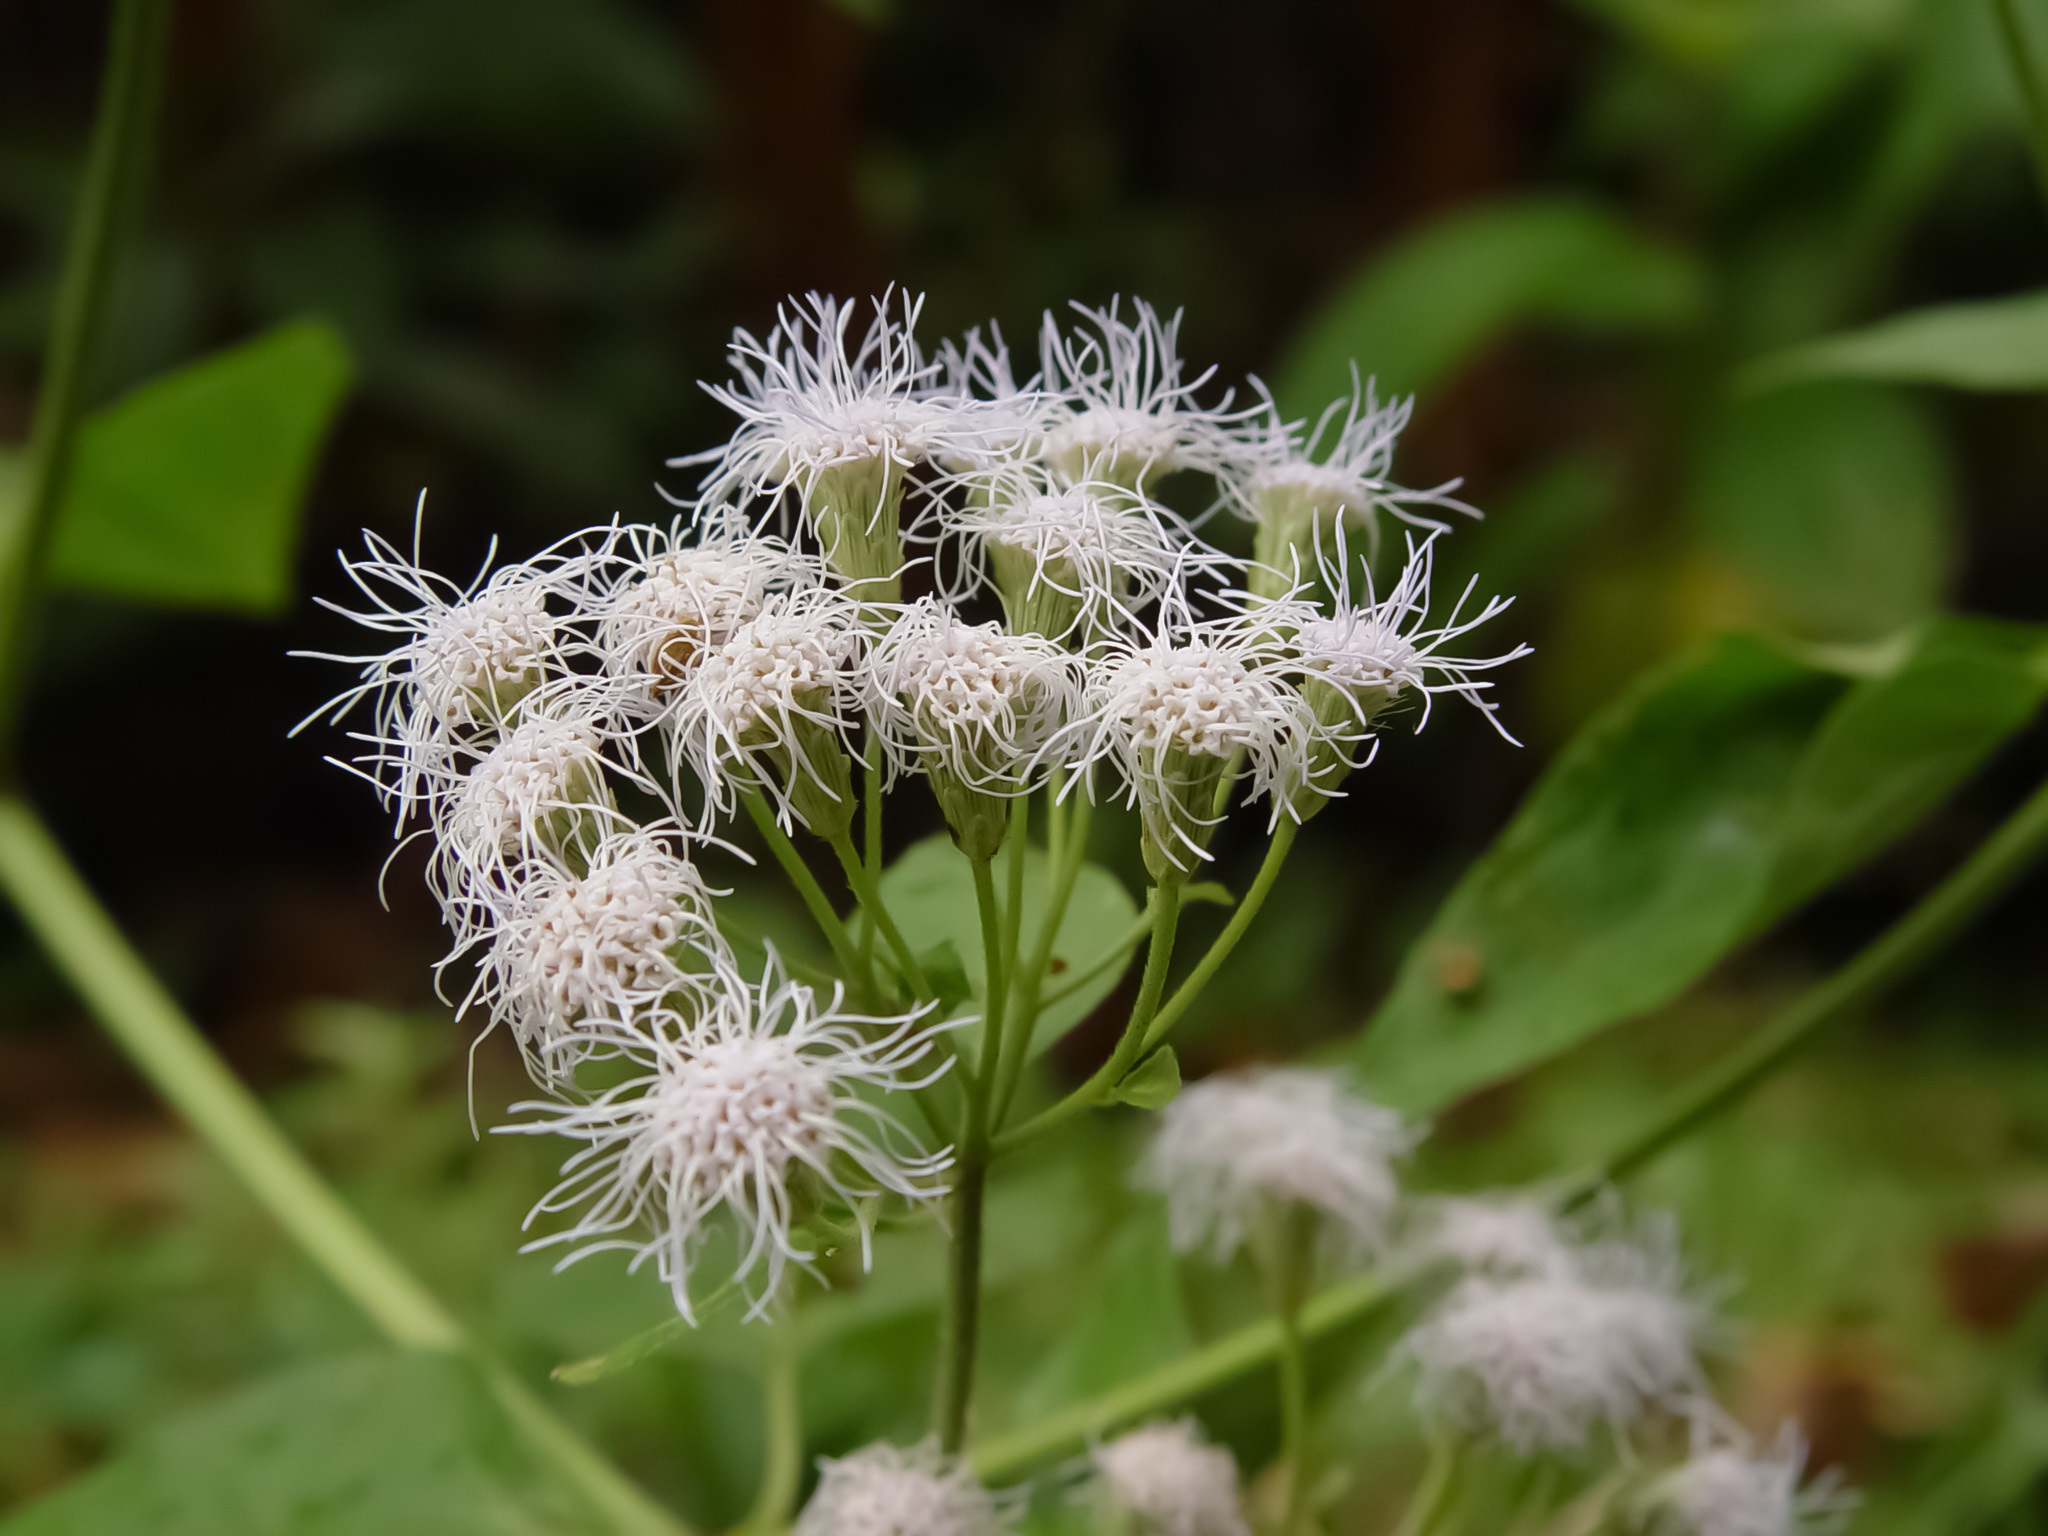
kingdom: Plantae
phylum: Tracheophyta
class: Magnoliopsida
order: Asterales
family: Asteraceae
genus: Chromolaena
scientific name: Chromolaena odorata
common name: Siamweed
